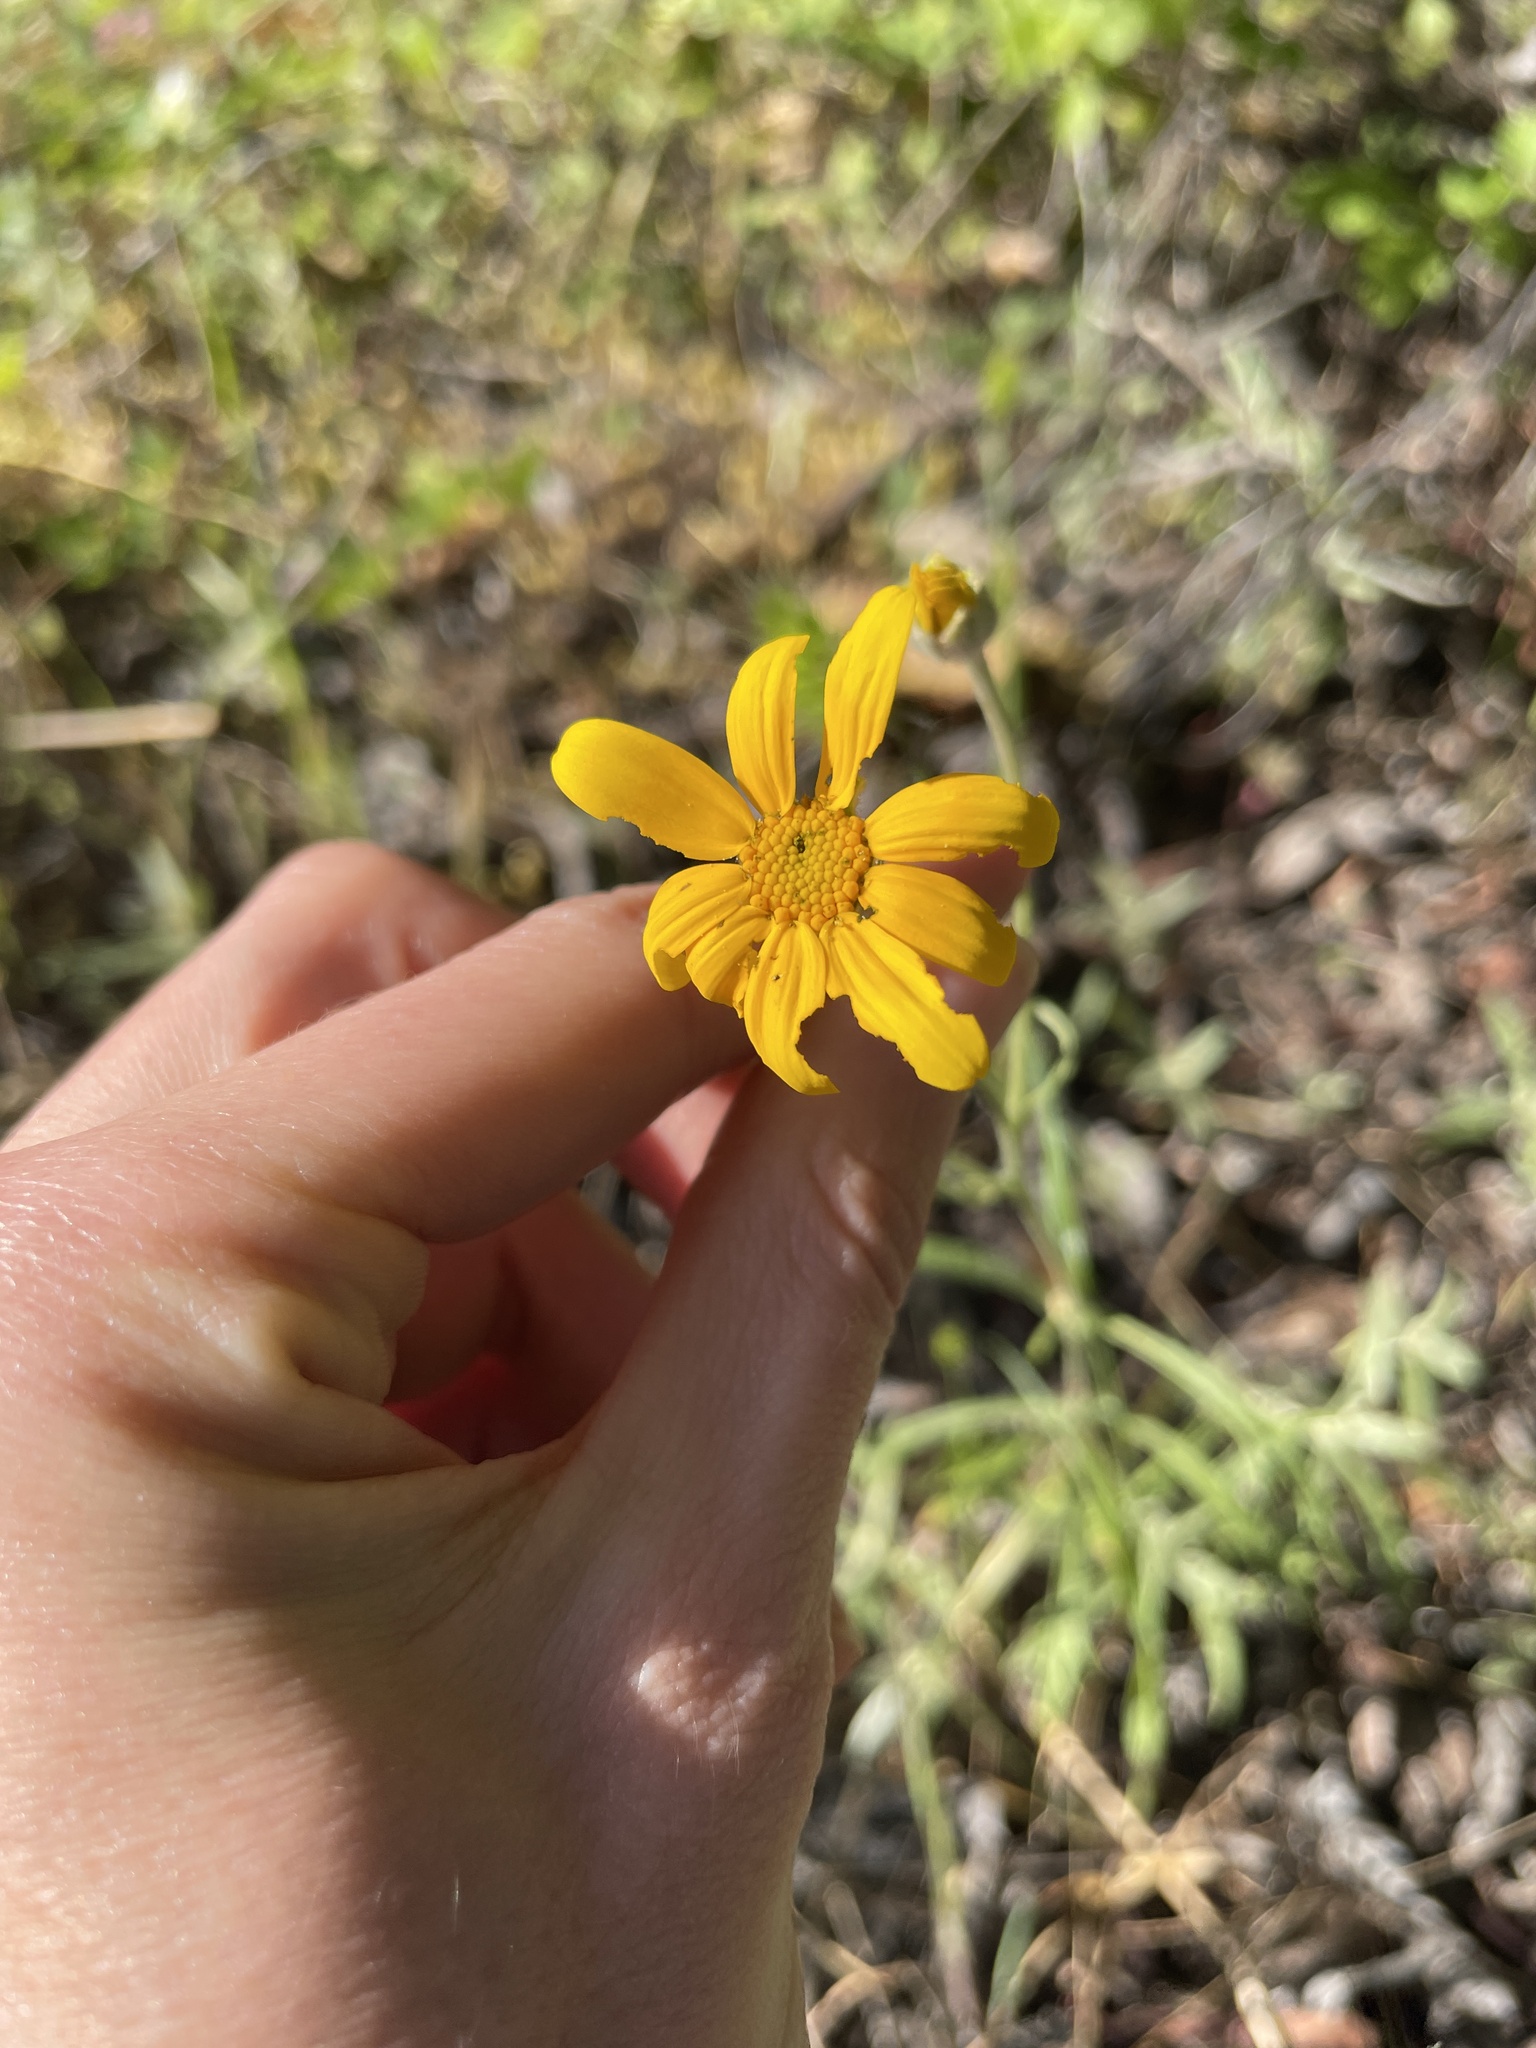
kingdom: Plantae
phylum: Tracheophyta
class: Magnoliopsida
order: Asterales
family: Asteraceae
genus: Eriophyllum
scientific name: Eriophyllum lanatum
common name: Common woolly-sunflower
